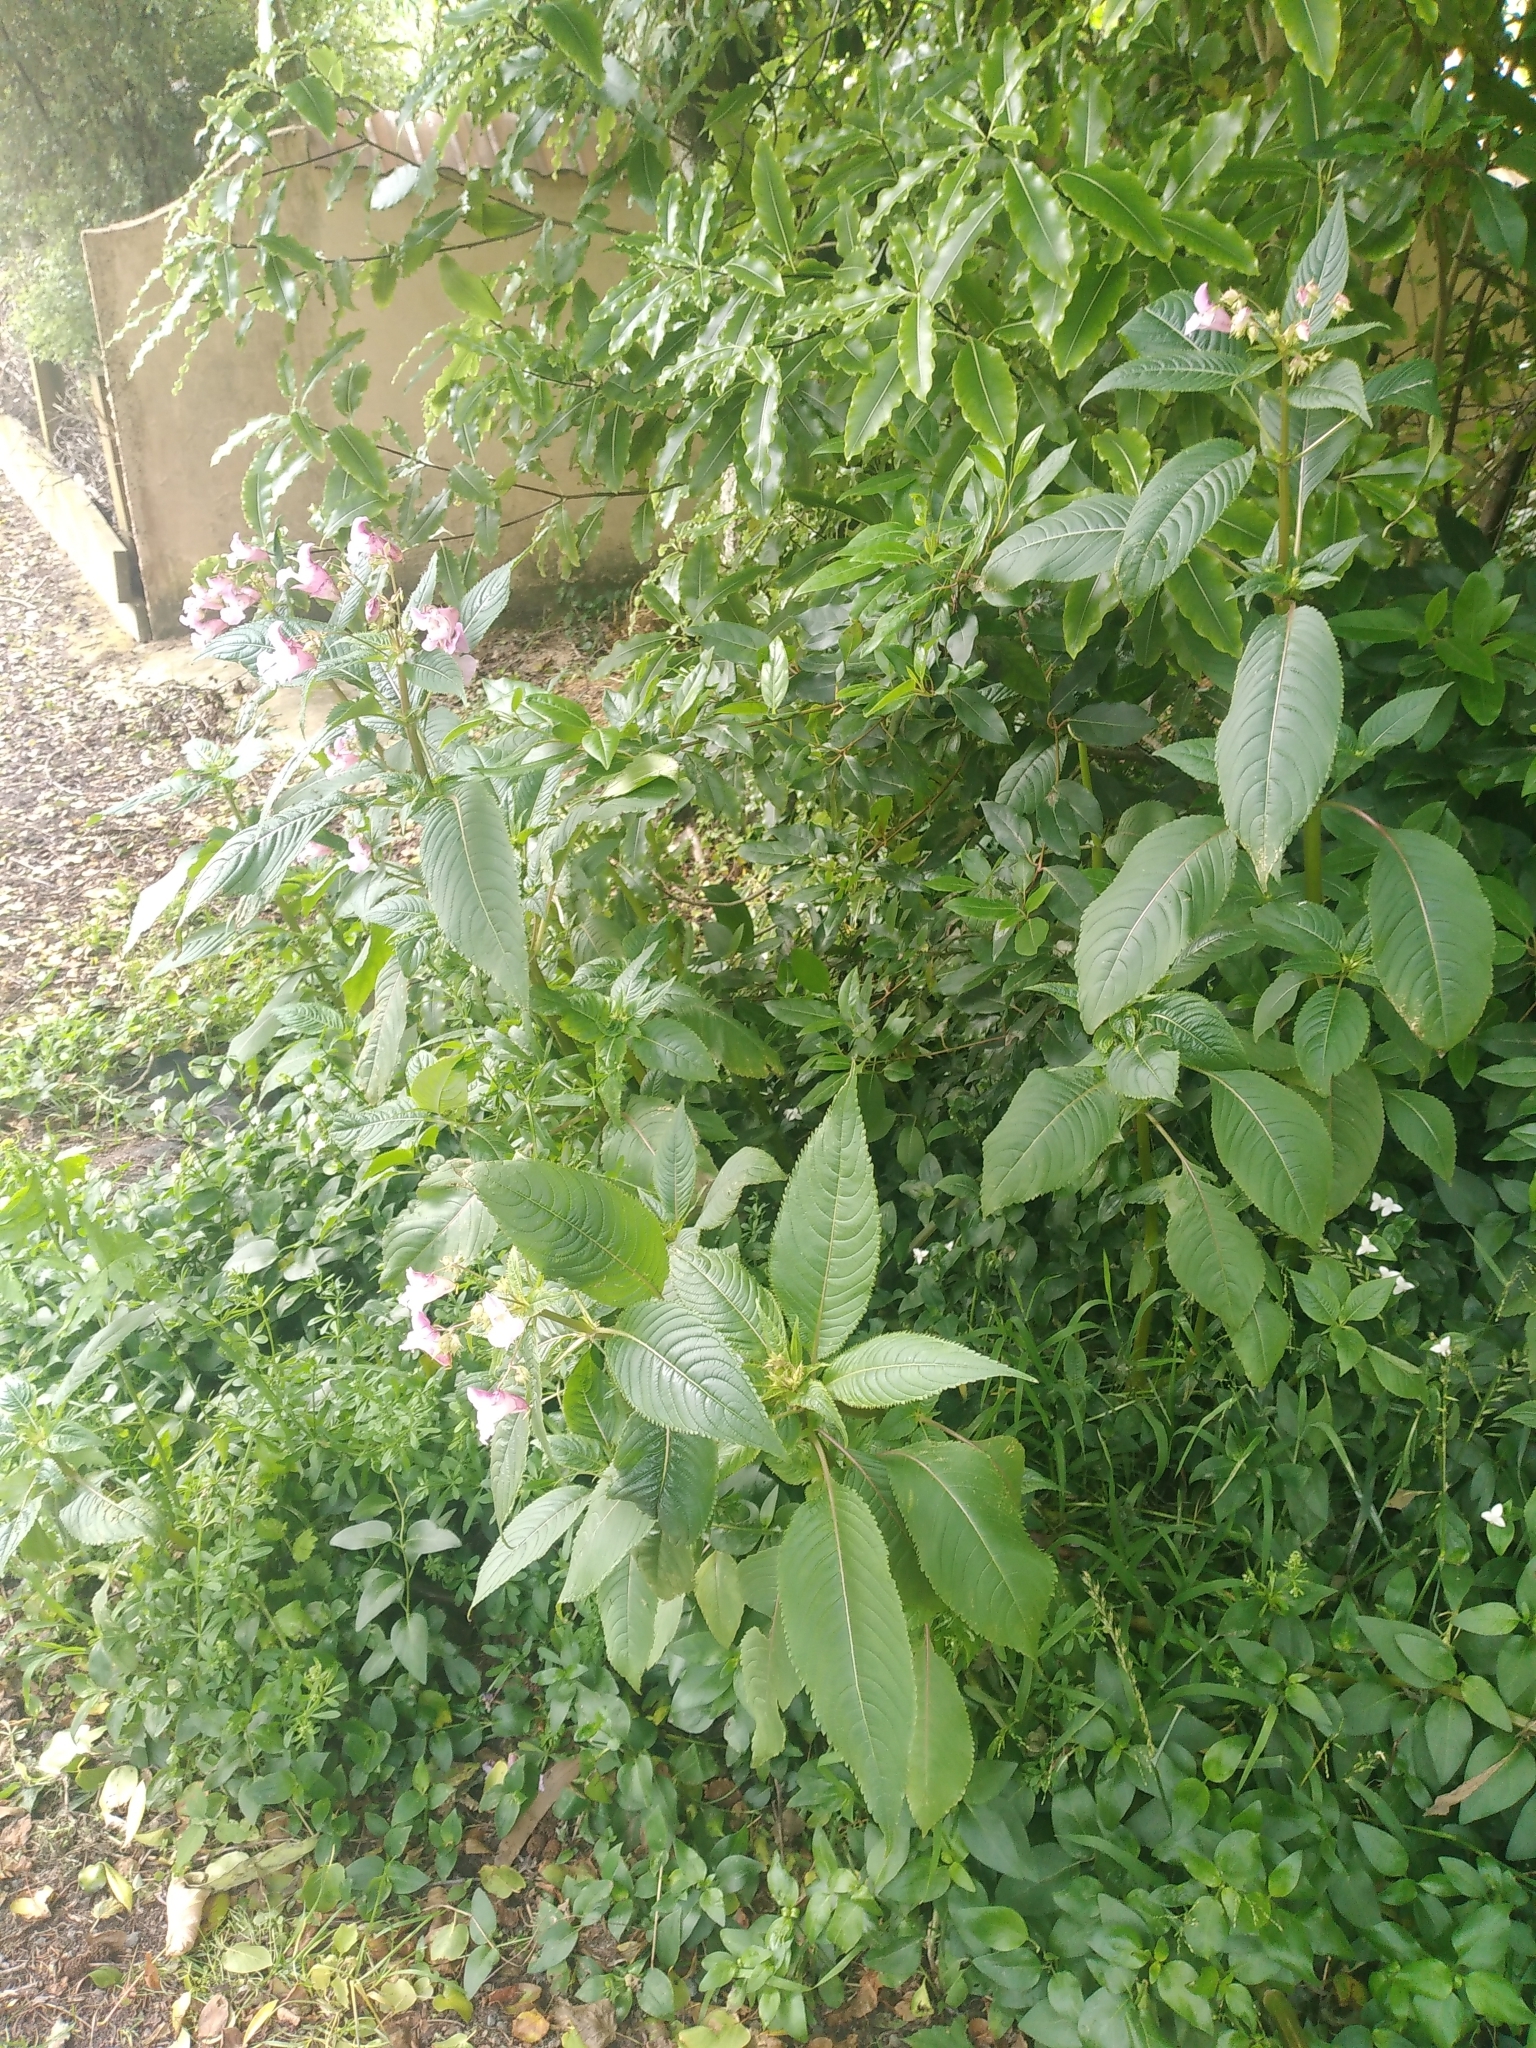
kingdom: Plantae
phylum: Tracheophyta
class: Magnoliopsida
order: Ericales
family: Balsaminaceae
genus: Impatiens
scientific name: Impatiens glandulifera
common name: Himalayan balsam
